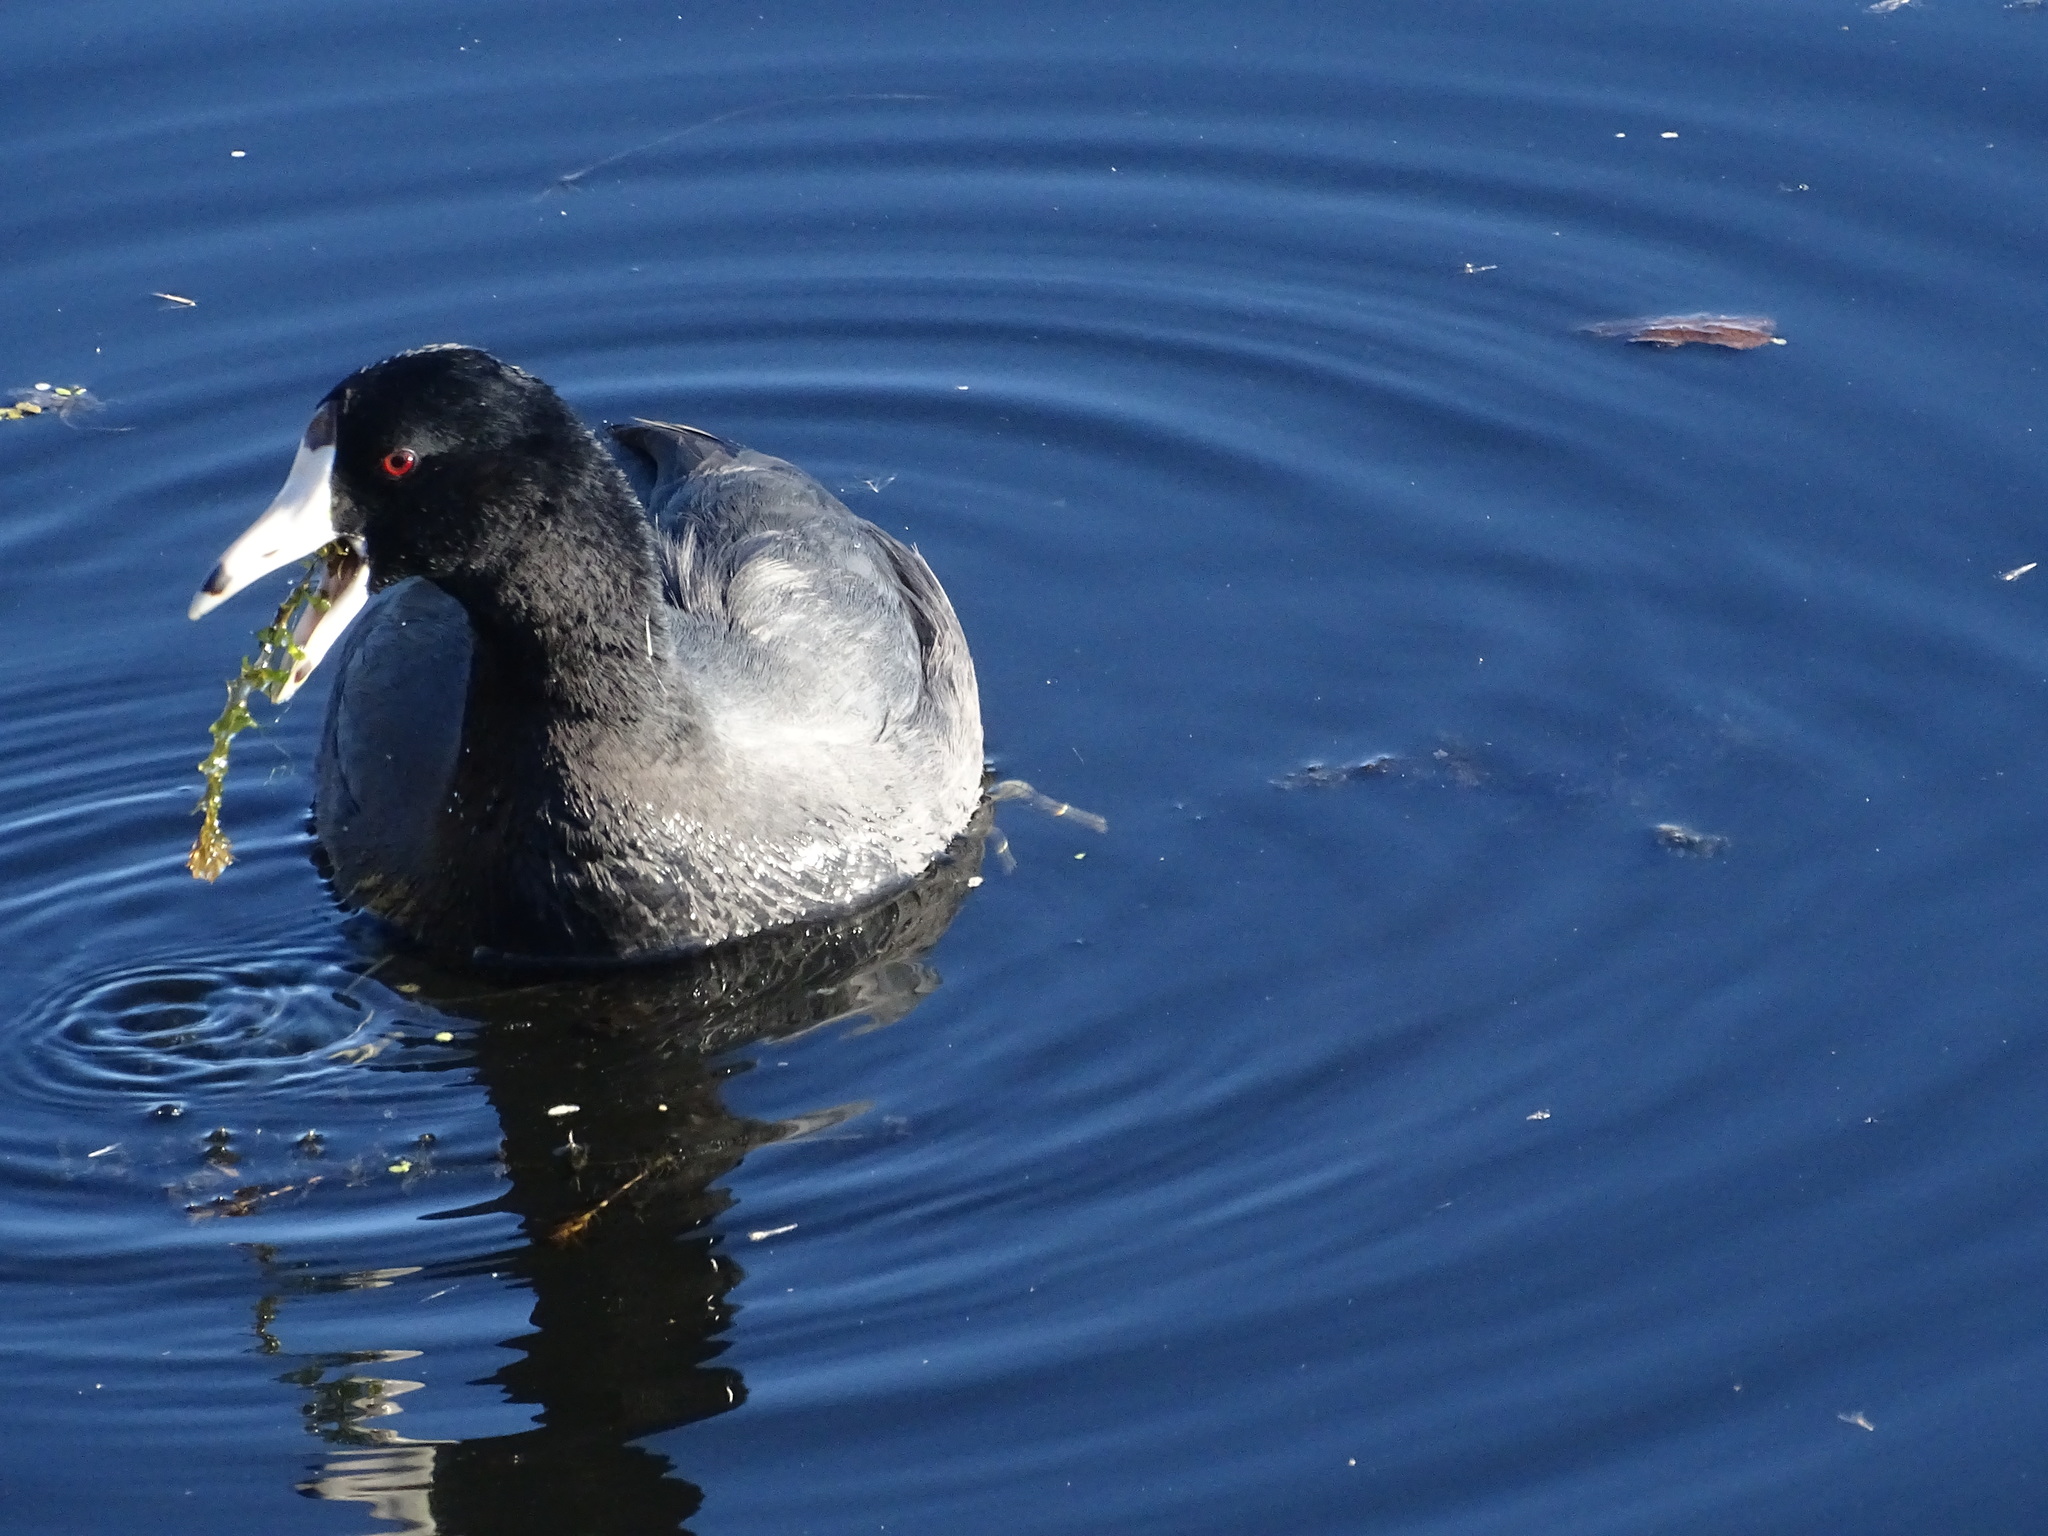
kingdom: Animalia
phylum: Chordata
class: Aves
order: Gruiformes
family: Rallidae
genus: Fulica
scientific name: Fulica americana
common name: American coot
